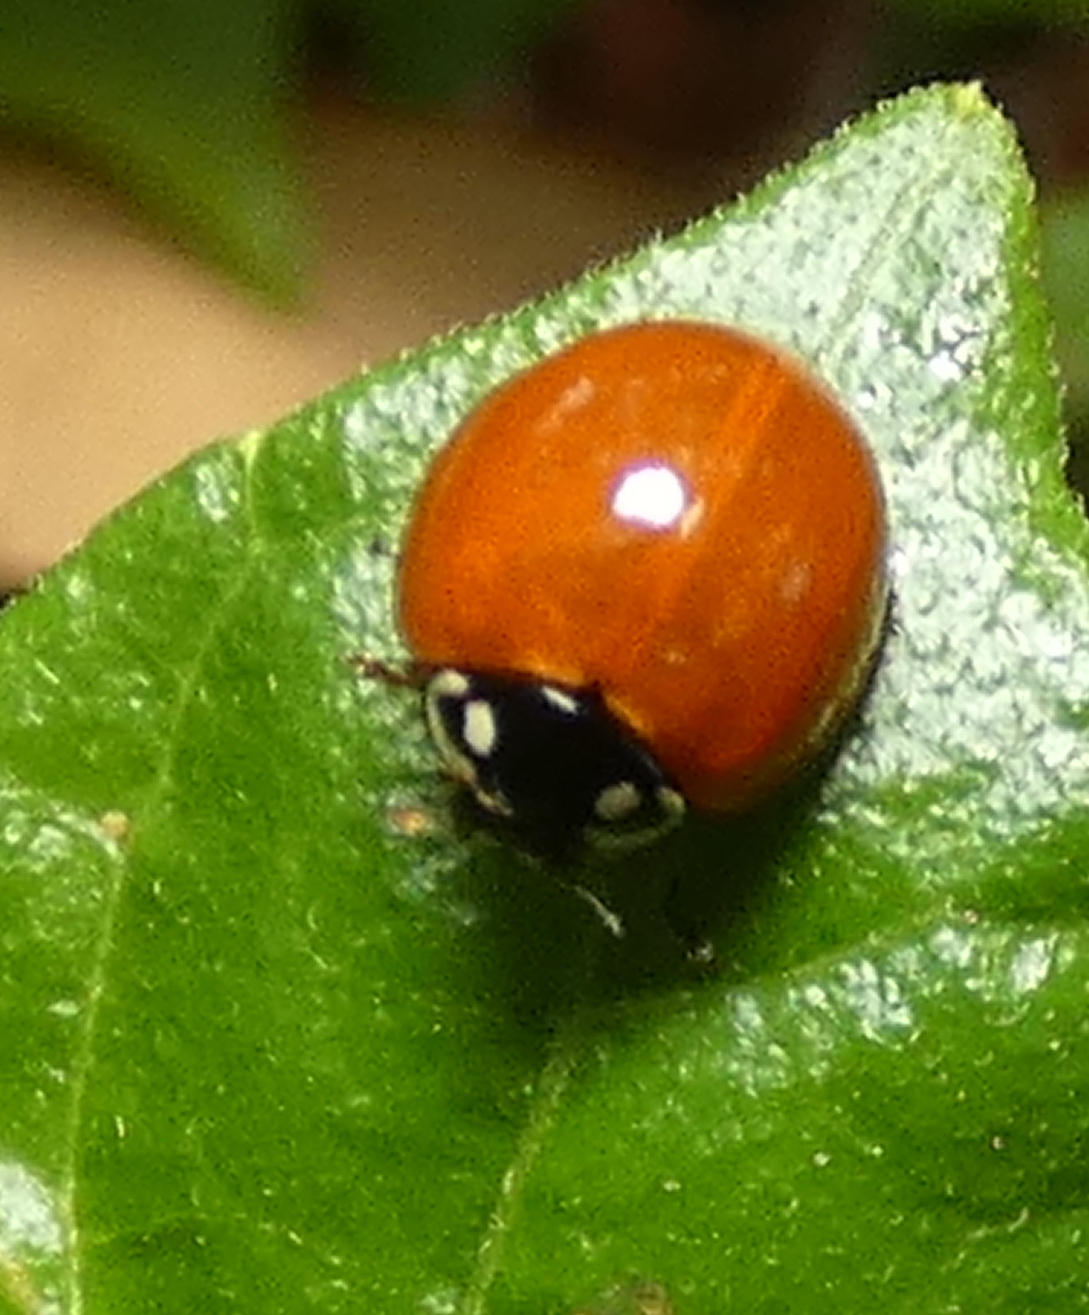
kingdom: Animalia
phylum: Arthropoda
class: Insecta
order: Coleoptera
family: Coccinellidae
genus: Cycloneda
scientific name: Cycloneda sanguinea
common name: Ladybird beetle
